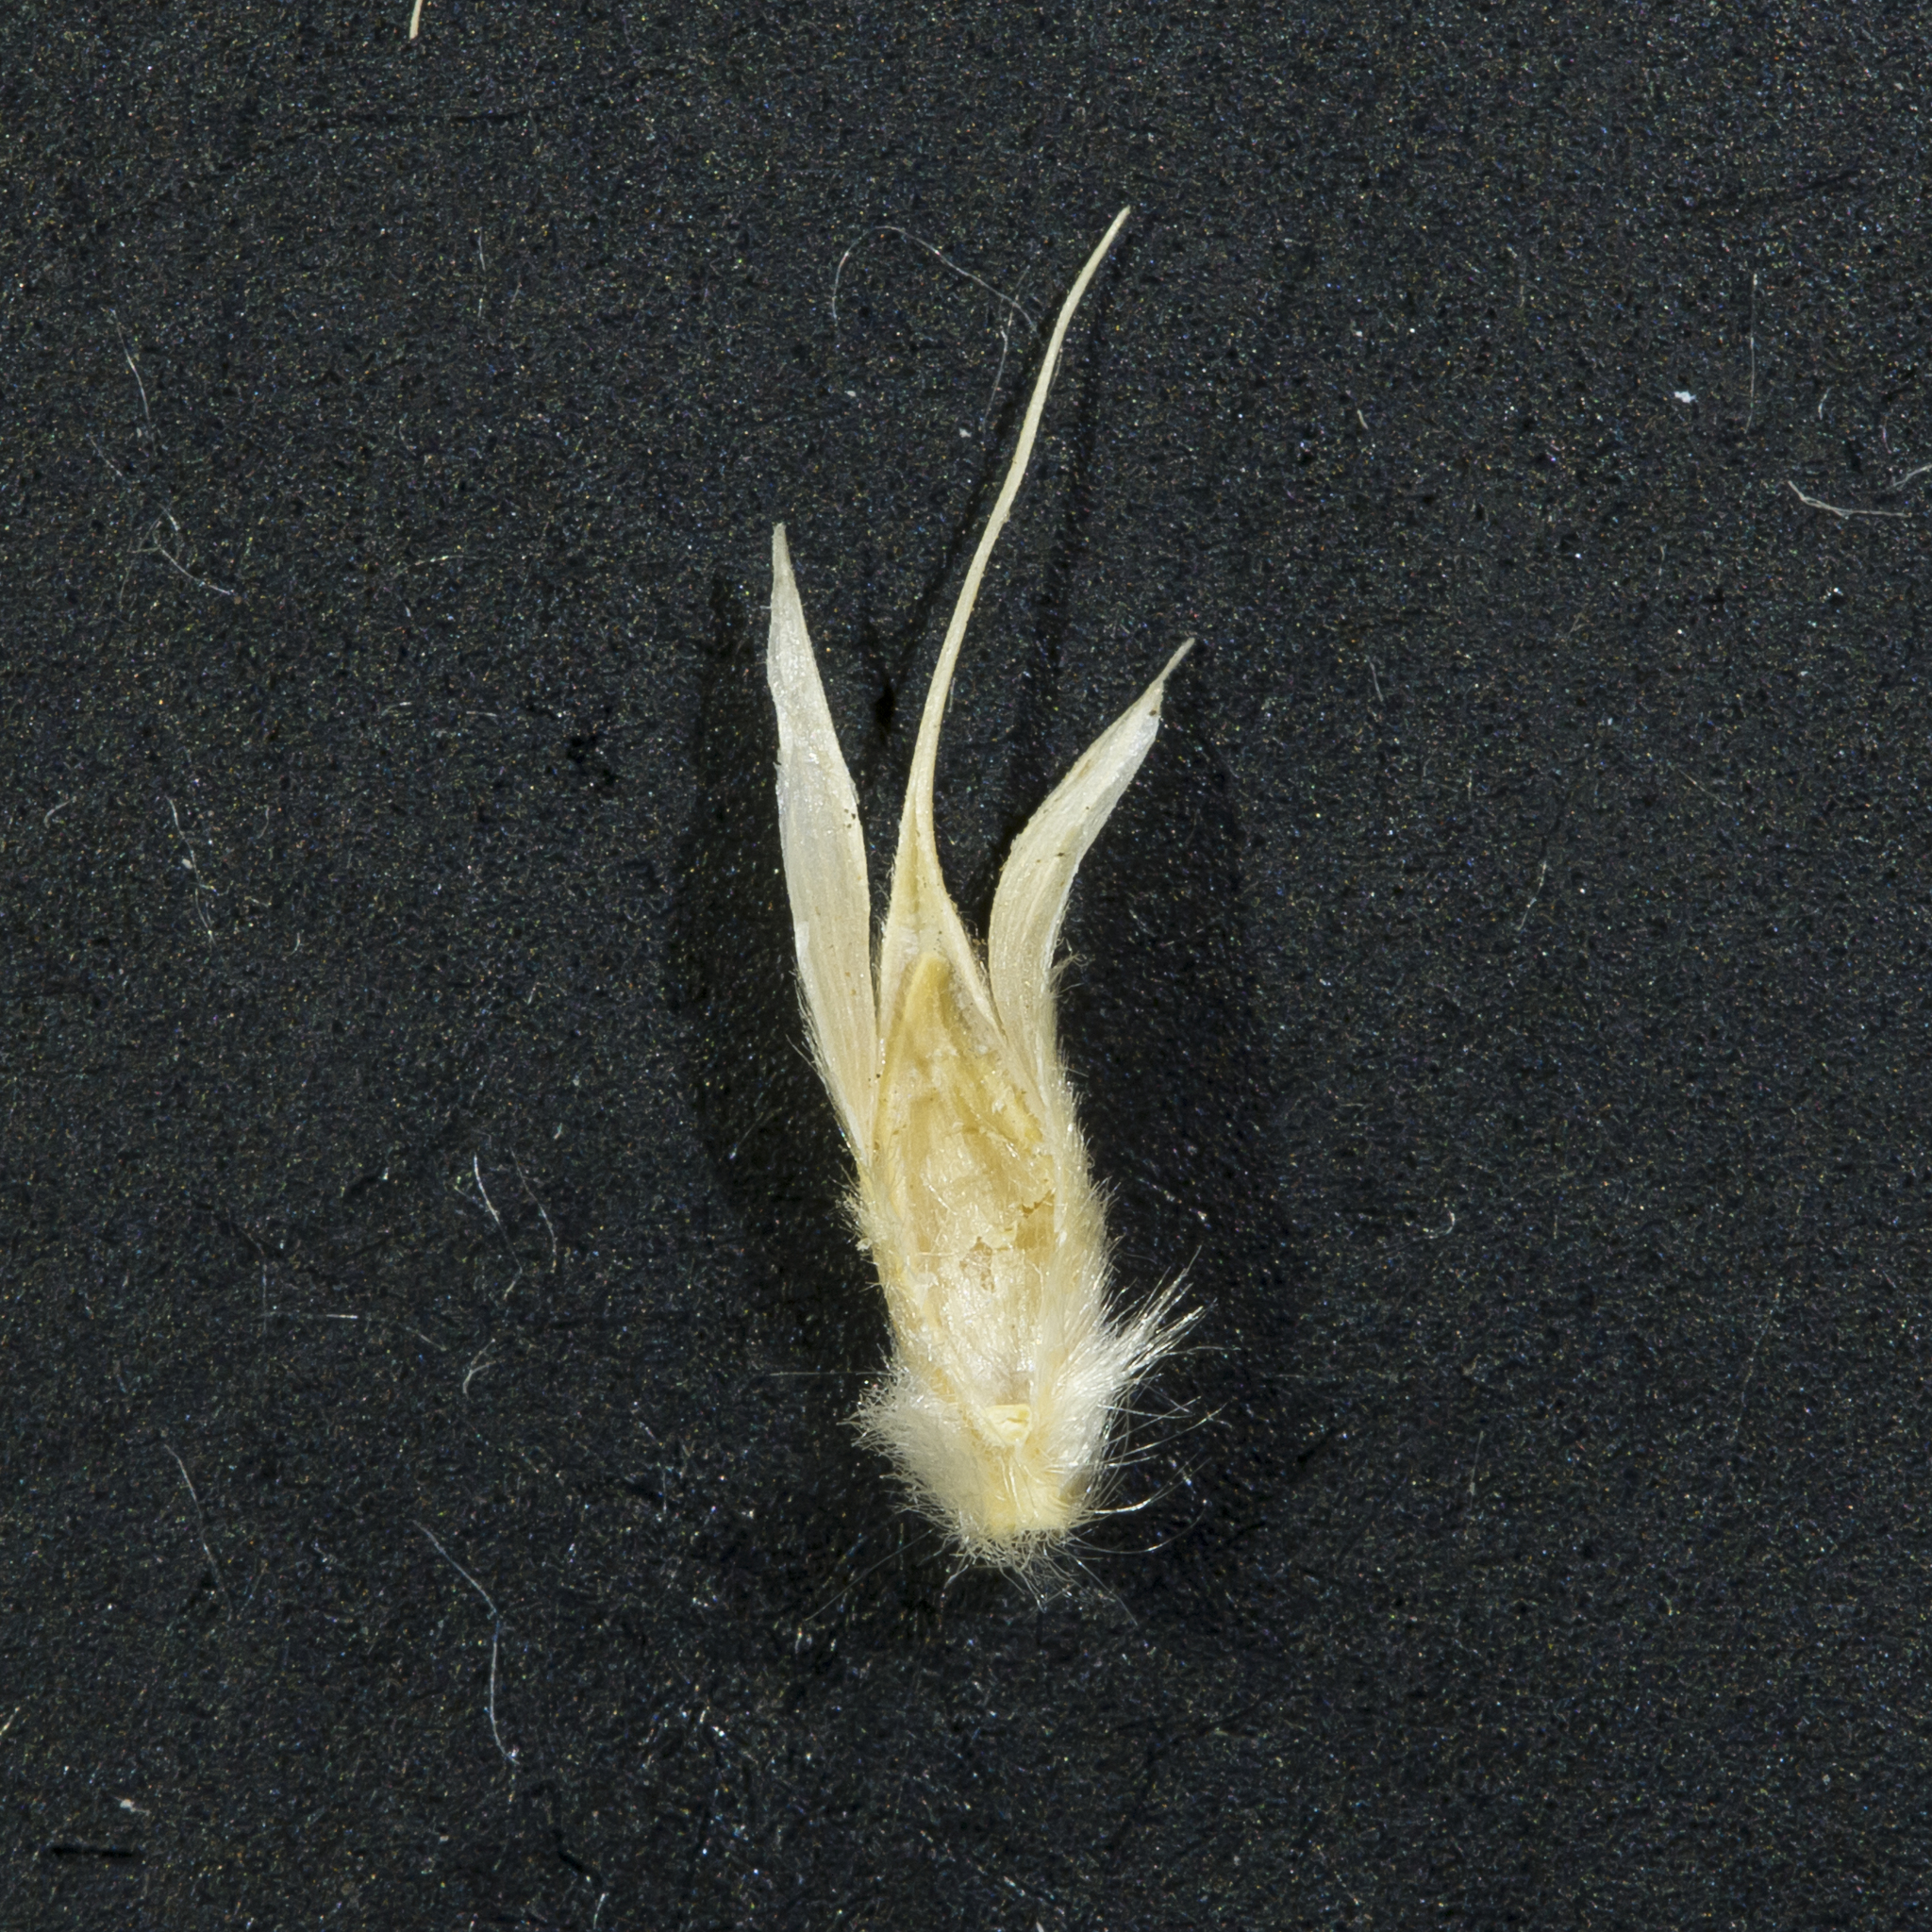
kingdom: Plantae
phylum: Tracheophyta
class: Liliopsida
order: Poales
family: Poaceae
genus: Astrebla
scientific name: Astrebla lappacea
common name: Curly mitchell grass
